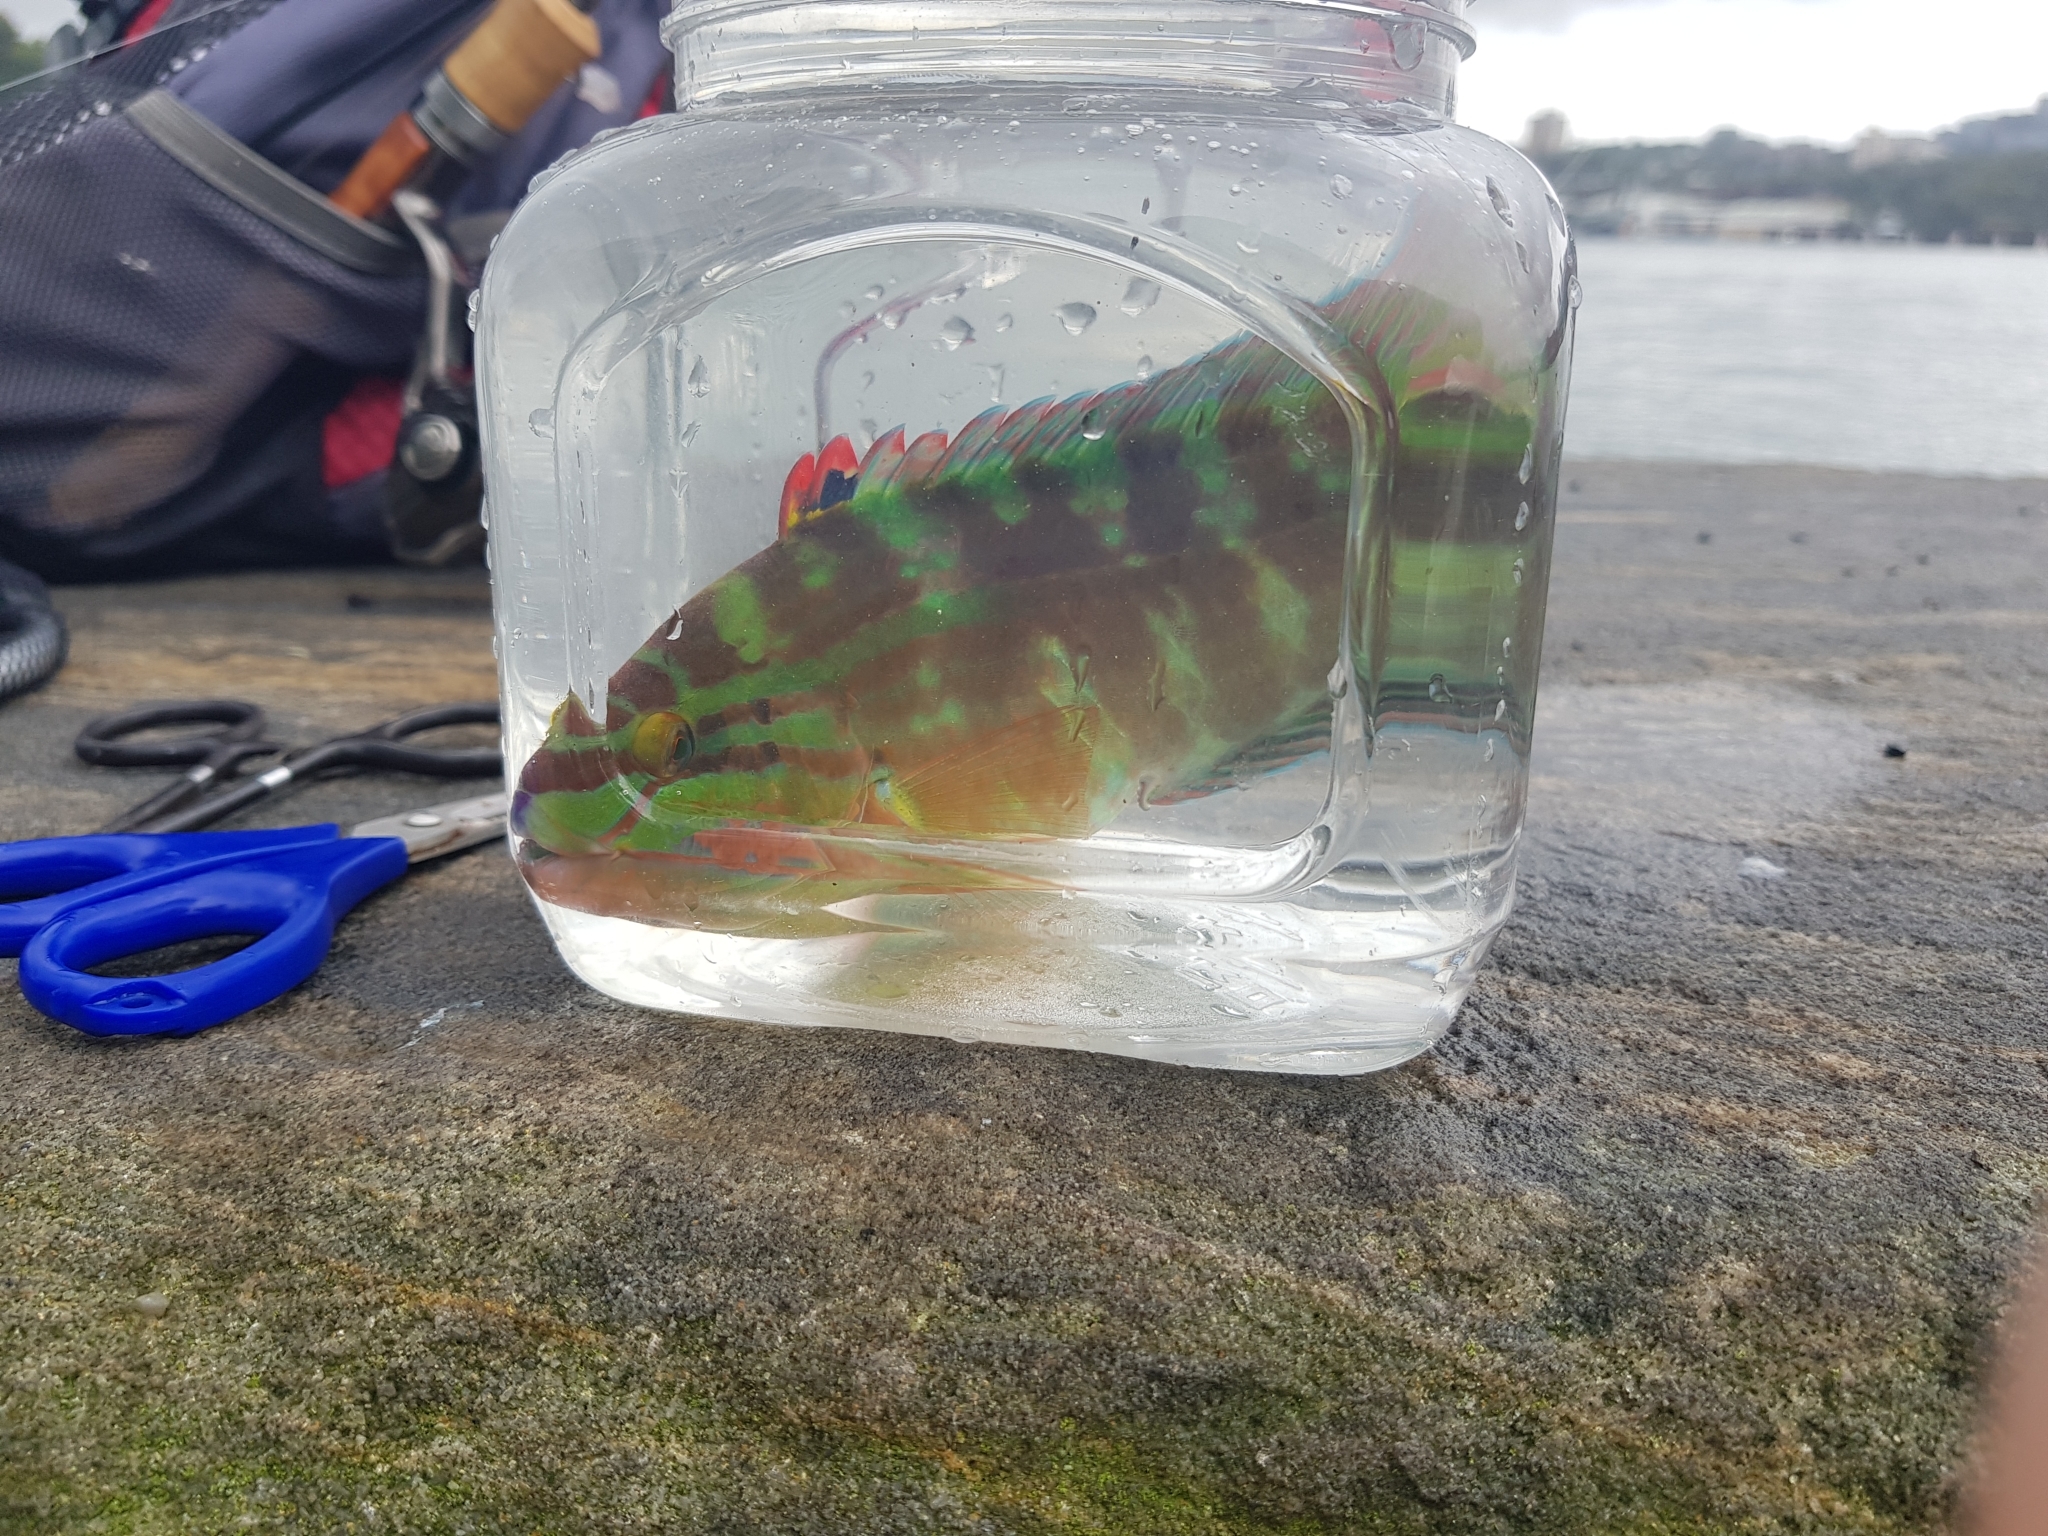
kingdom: Animalia
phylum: Chordata
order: Perciformes
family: Labridae
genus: Pseudolabrus
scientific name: Pseudolabrus guentheri
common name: Günther's wrasse
